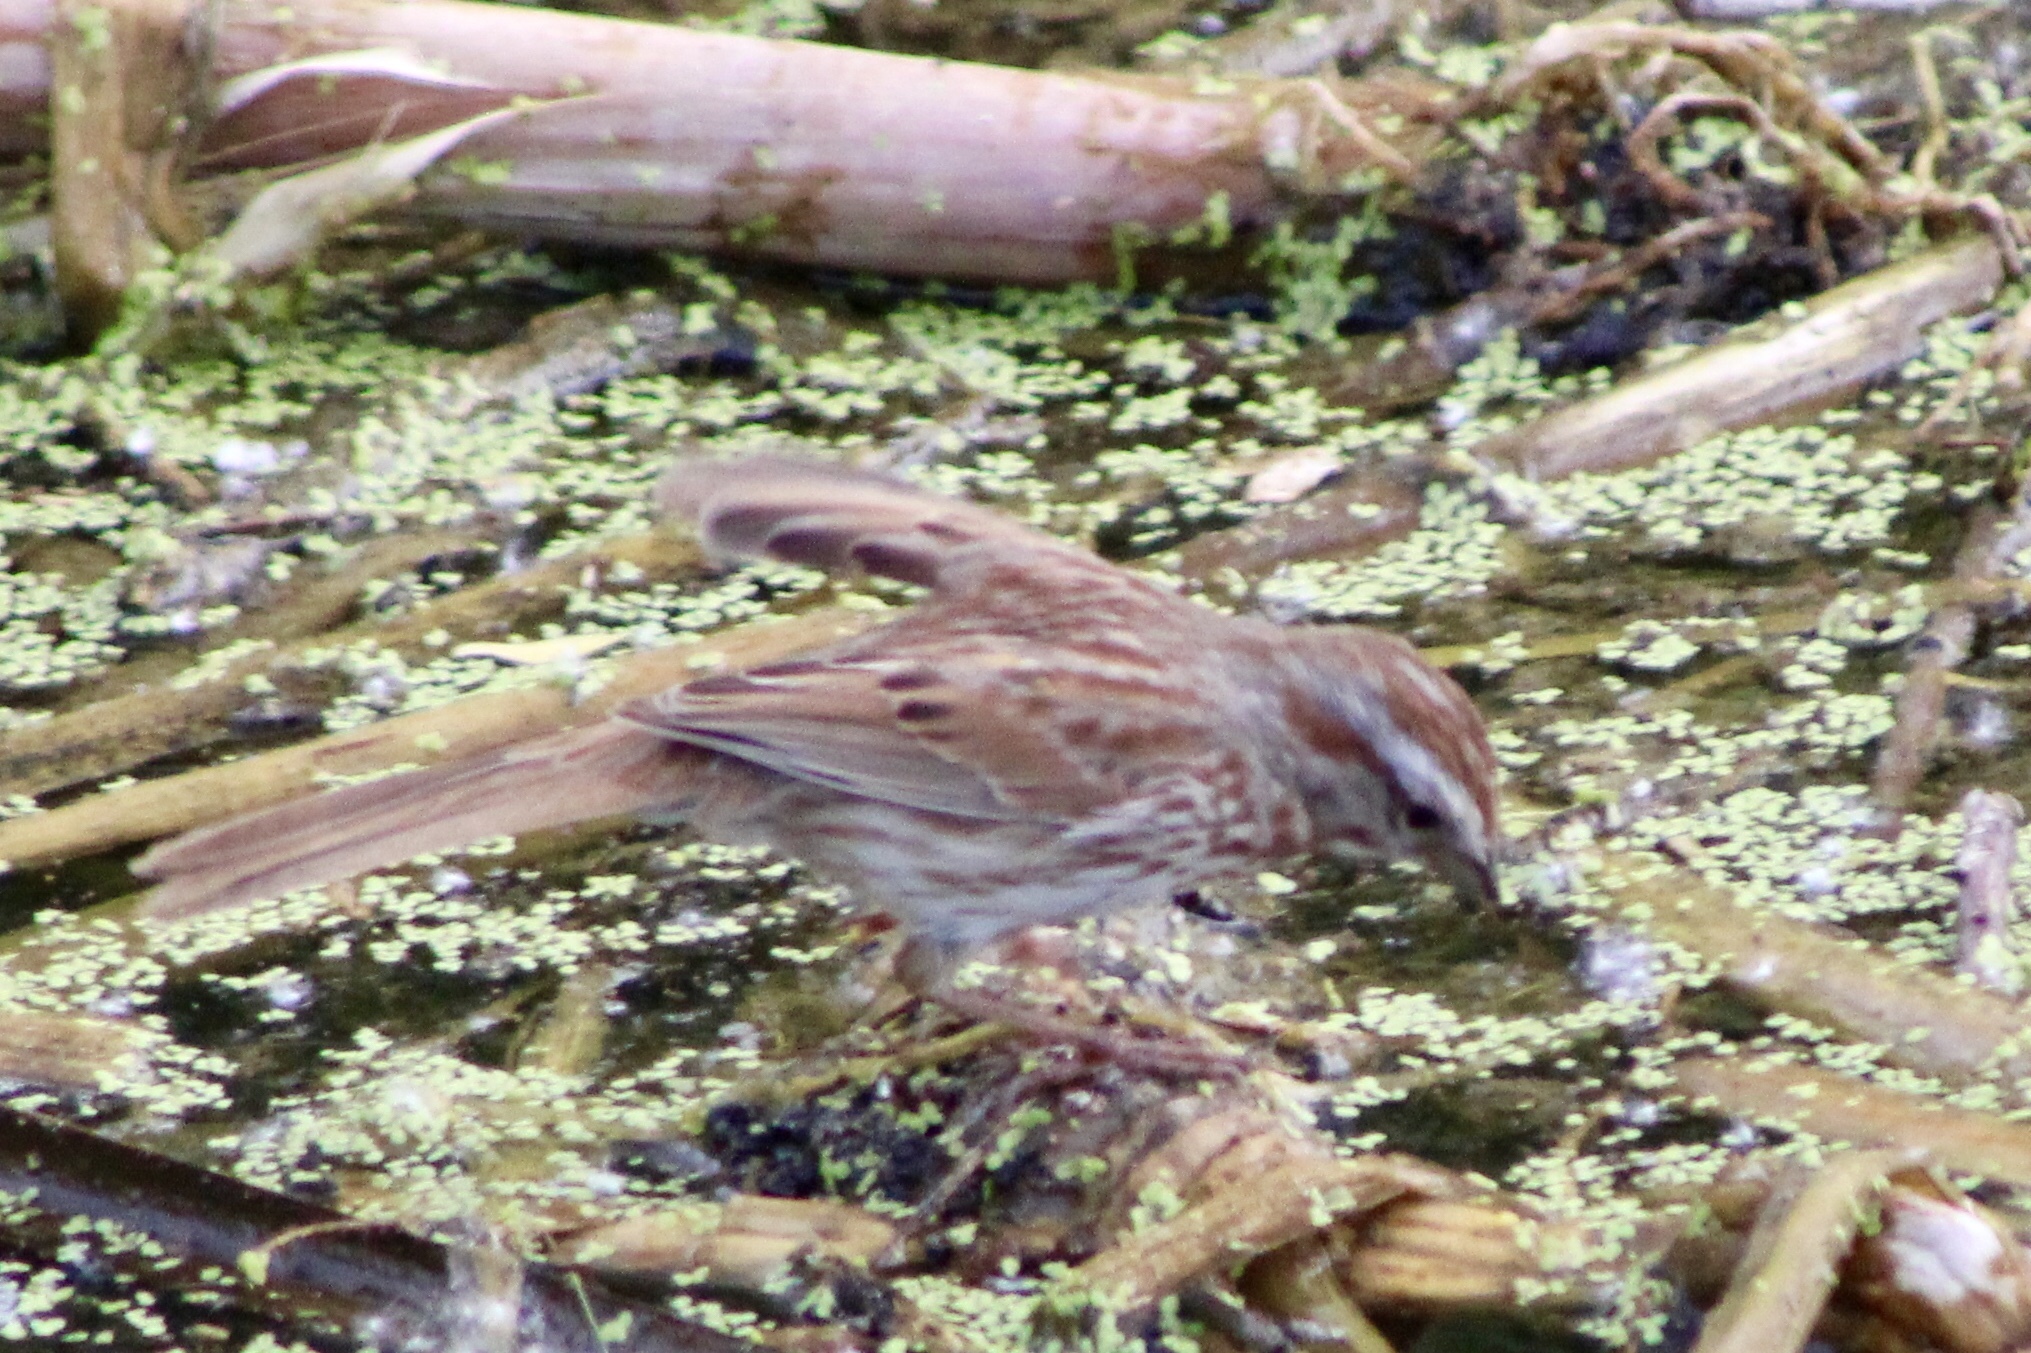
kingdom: Animalia
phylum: Chordata
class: Aves
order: Passeriformes
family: Passerellidae
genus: Melospiza
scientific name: Melospiza melodia
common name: Song sparrow
